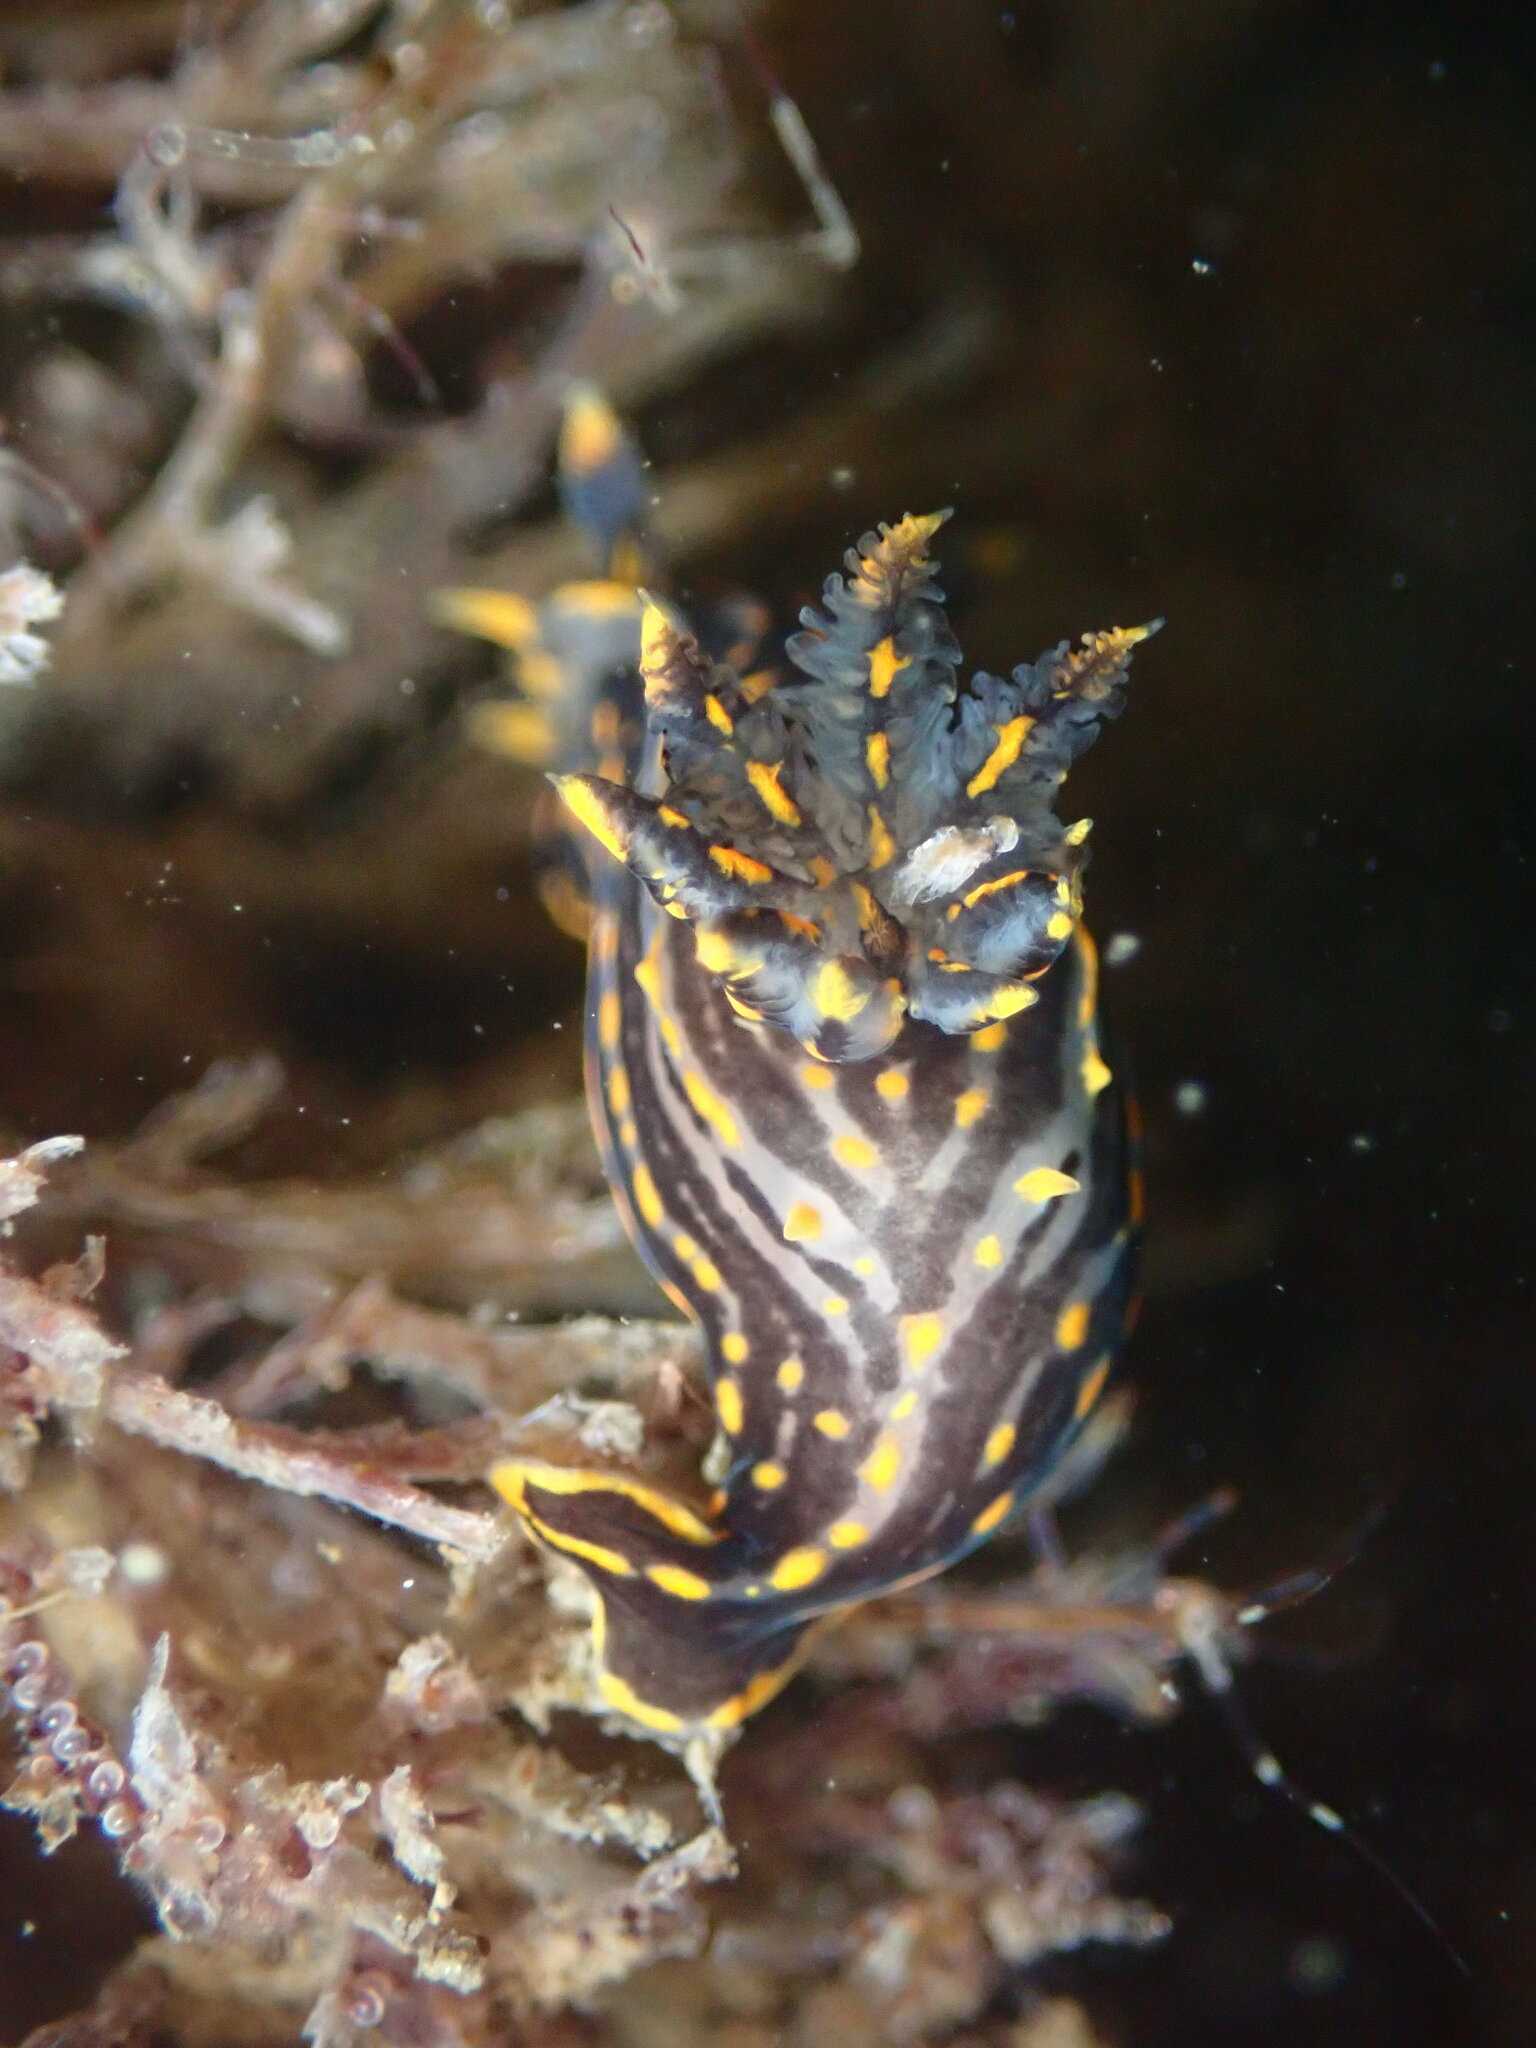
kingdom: Animalia
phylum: Mollusca
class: Gastropoda
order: Nudibranchia
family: Polyceridae
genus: Polycera
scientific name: Polycera atra
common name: Orange-spike polycera
